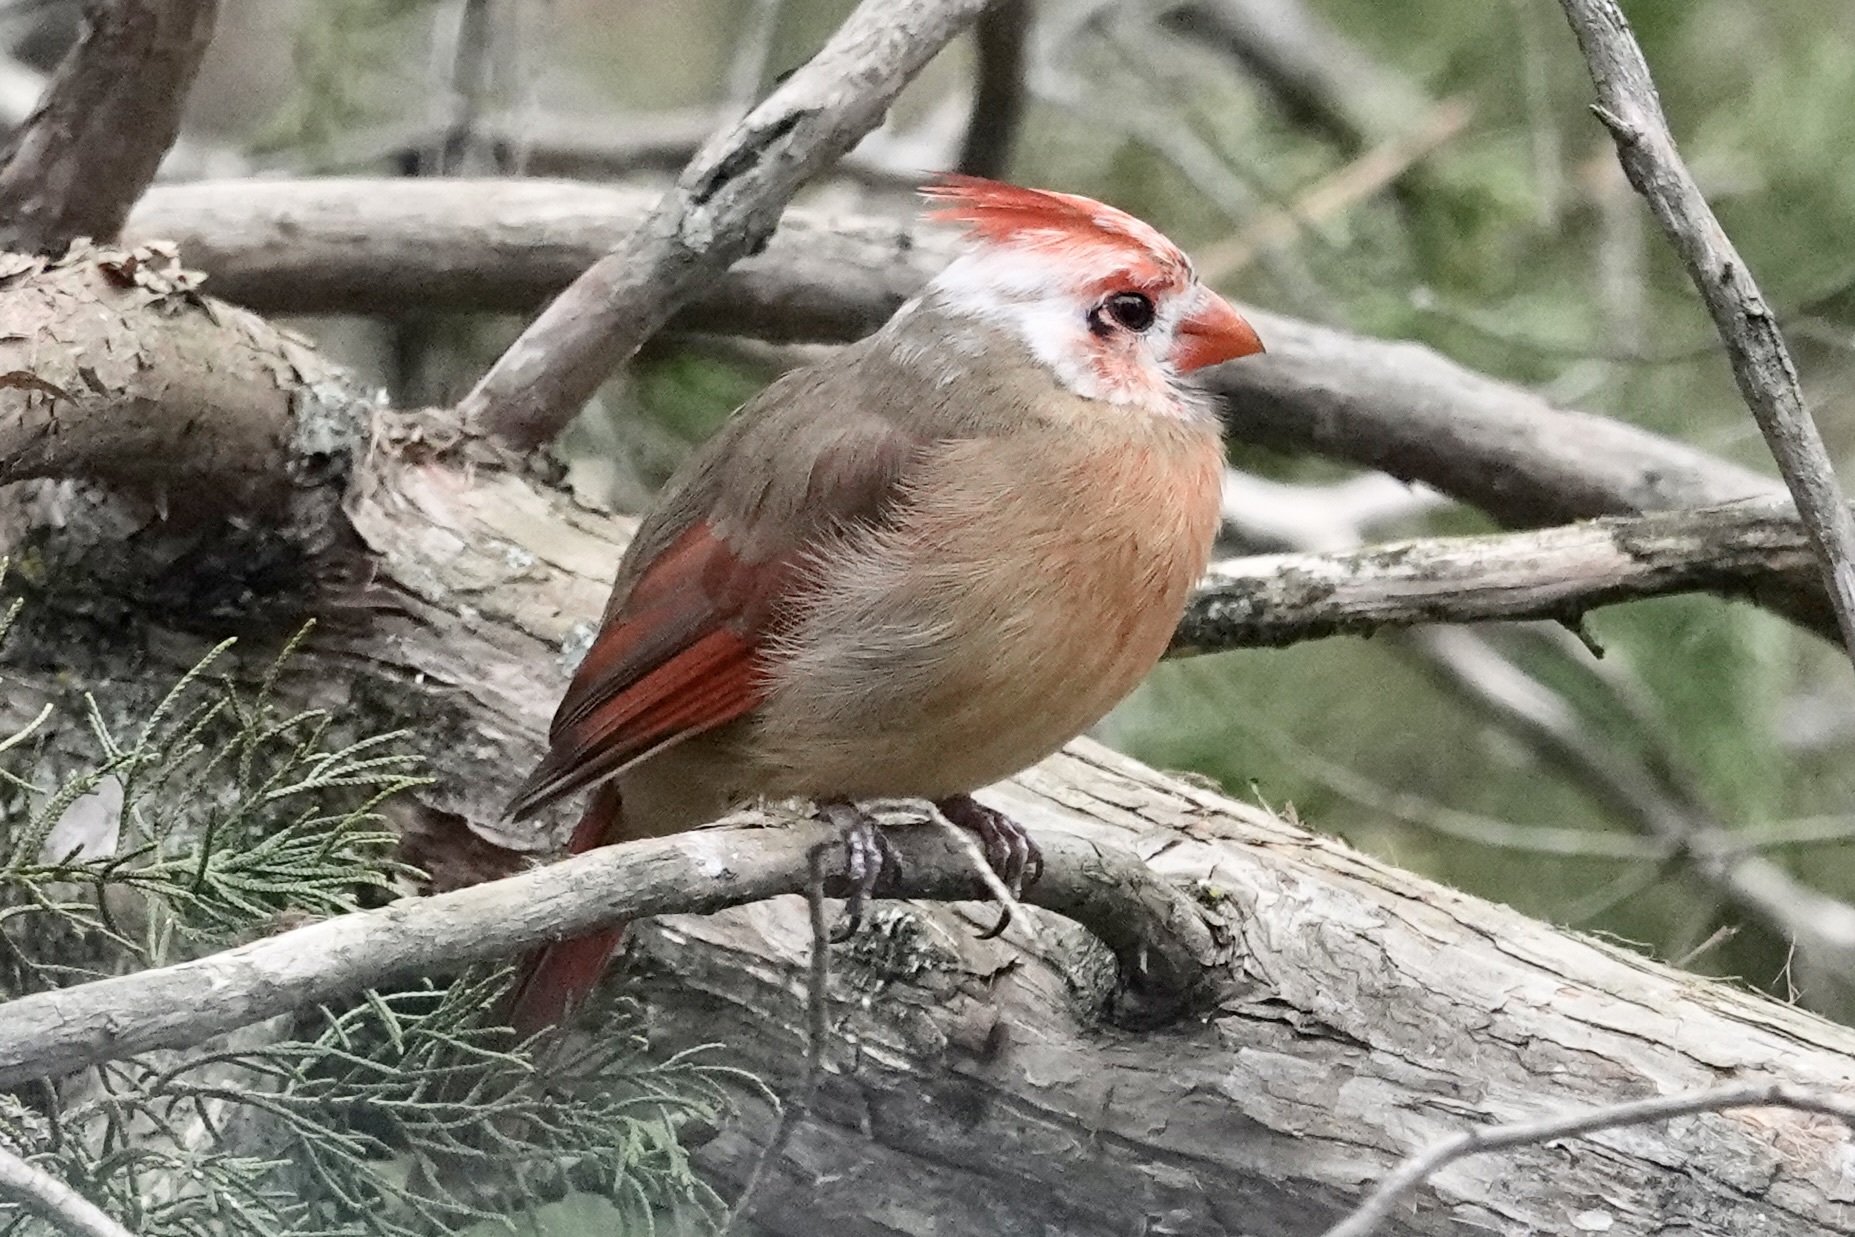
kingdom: Animalia
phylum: Chordata
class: Aves
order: Passeriformes
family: Cardinalidae
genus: Cardinalis
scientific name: Cardinalis cardinalis
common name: Northern cardinal
